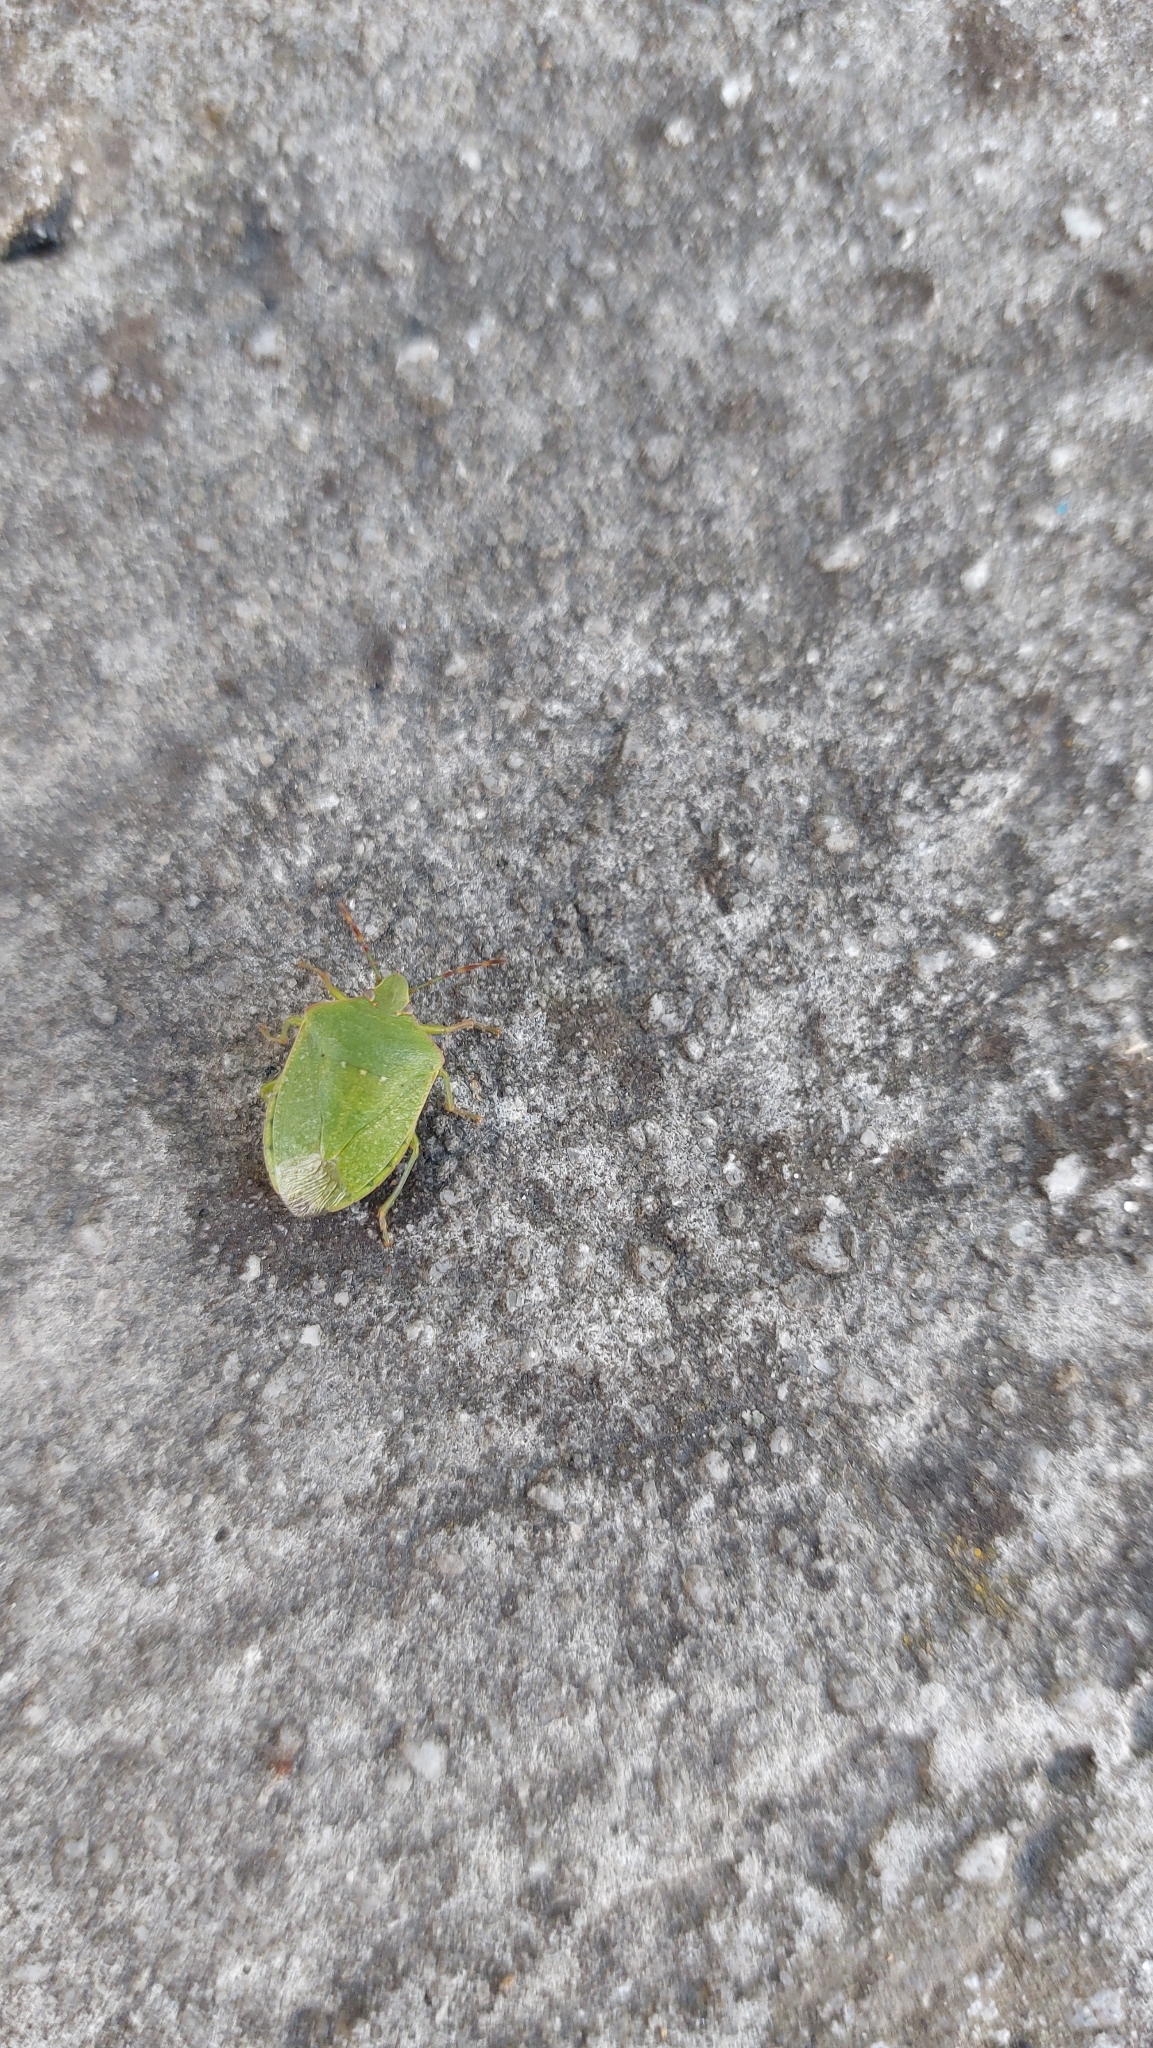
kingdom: Animalia
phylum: Arthropoda
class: Insecta
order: Hemiptera
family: Pentatomidae
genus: Nezara
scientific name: Nezara viridula
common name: Southern green stink bug
